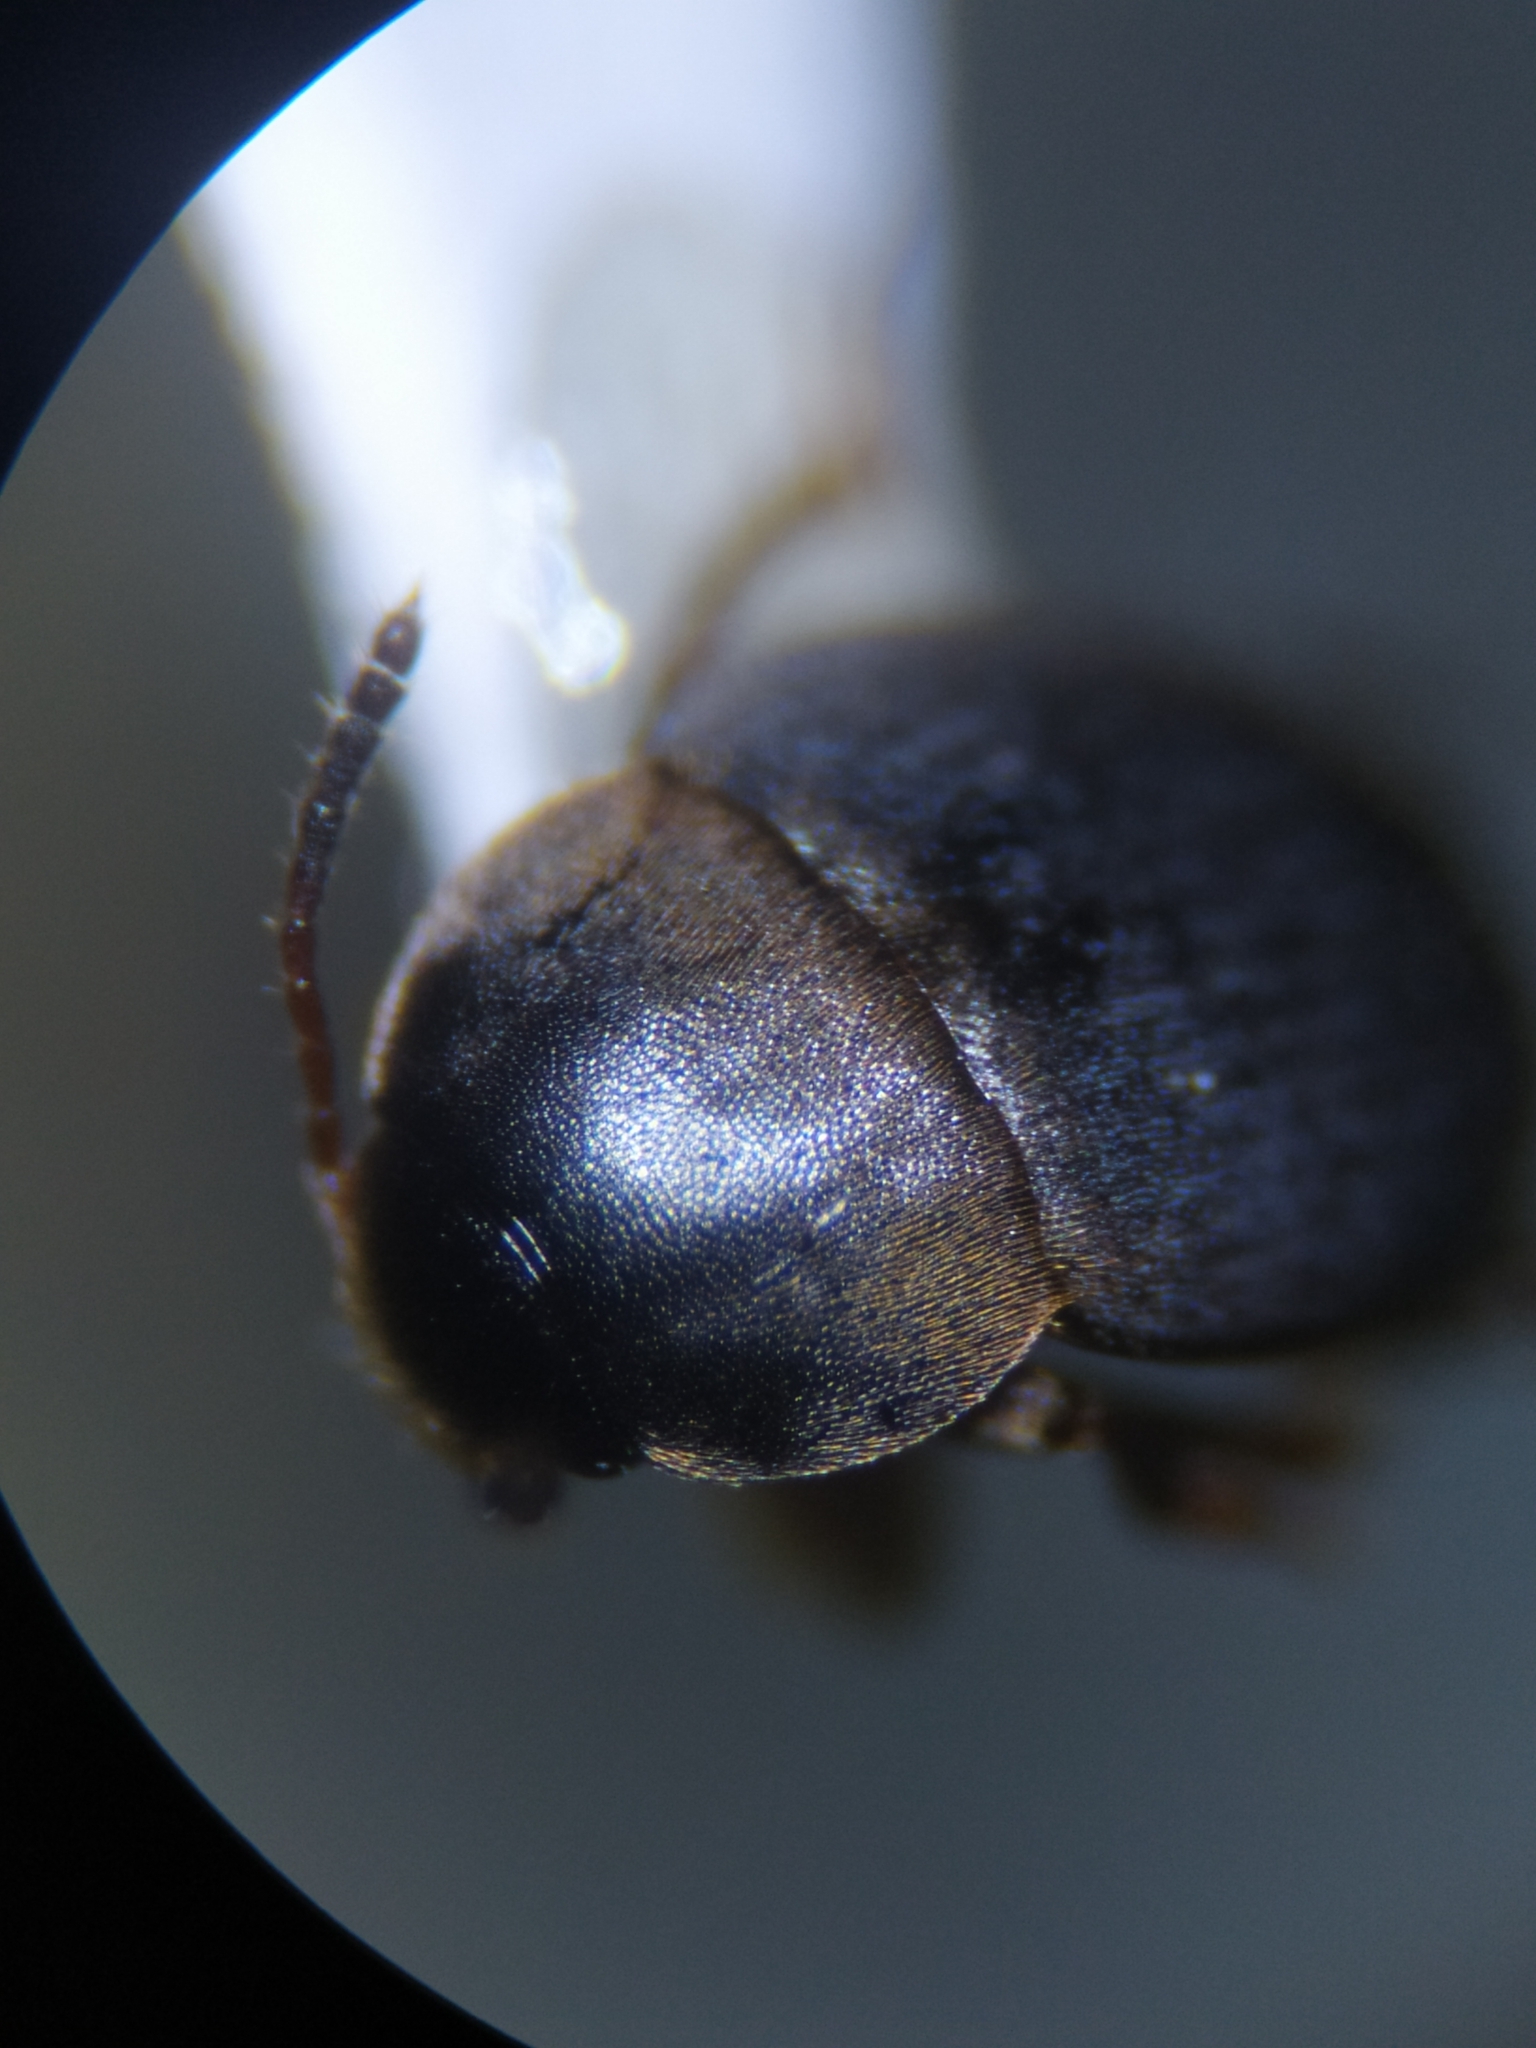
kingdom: Animalia
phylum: Arthropoda
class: Insecta
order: Coleoptera
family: Leiodidae
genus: Catops
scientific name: Catops fuliginosus
